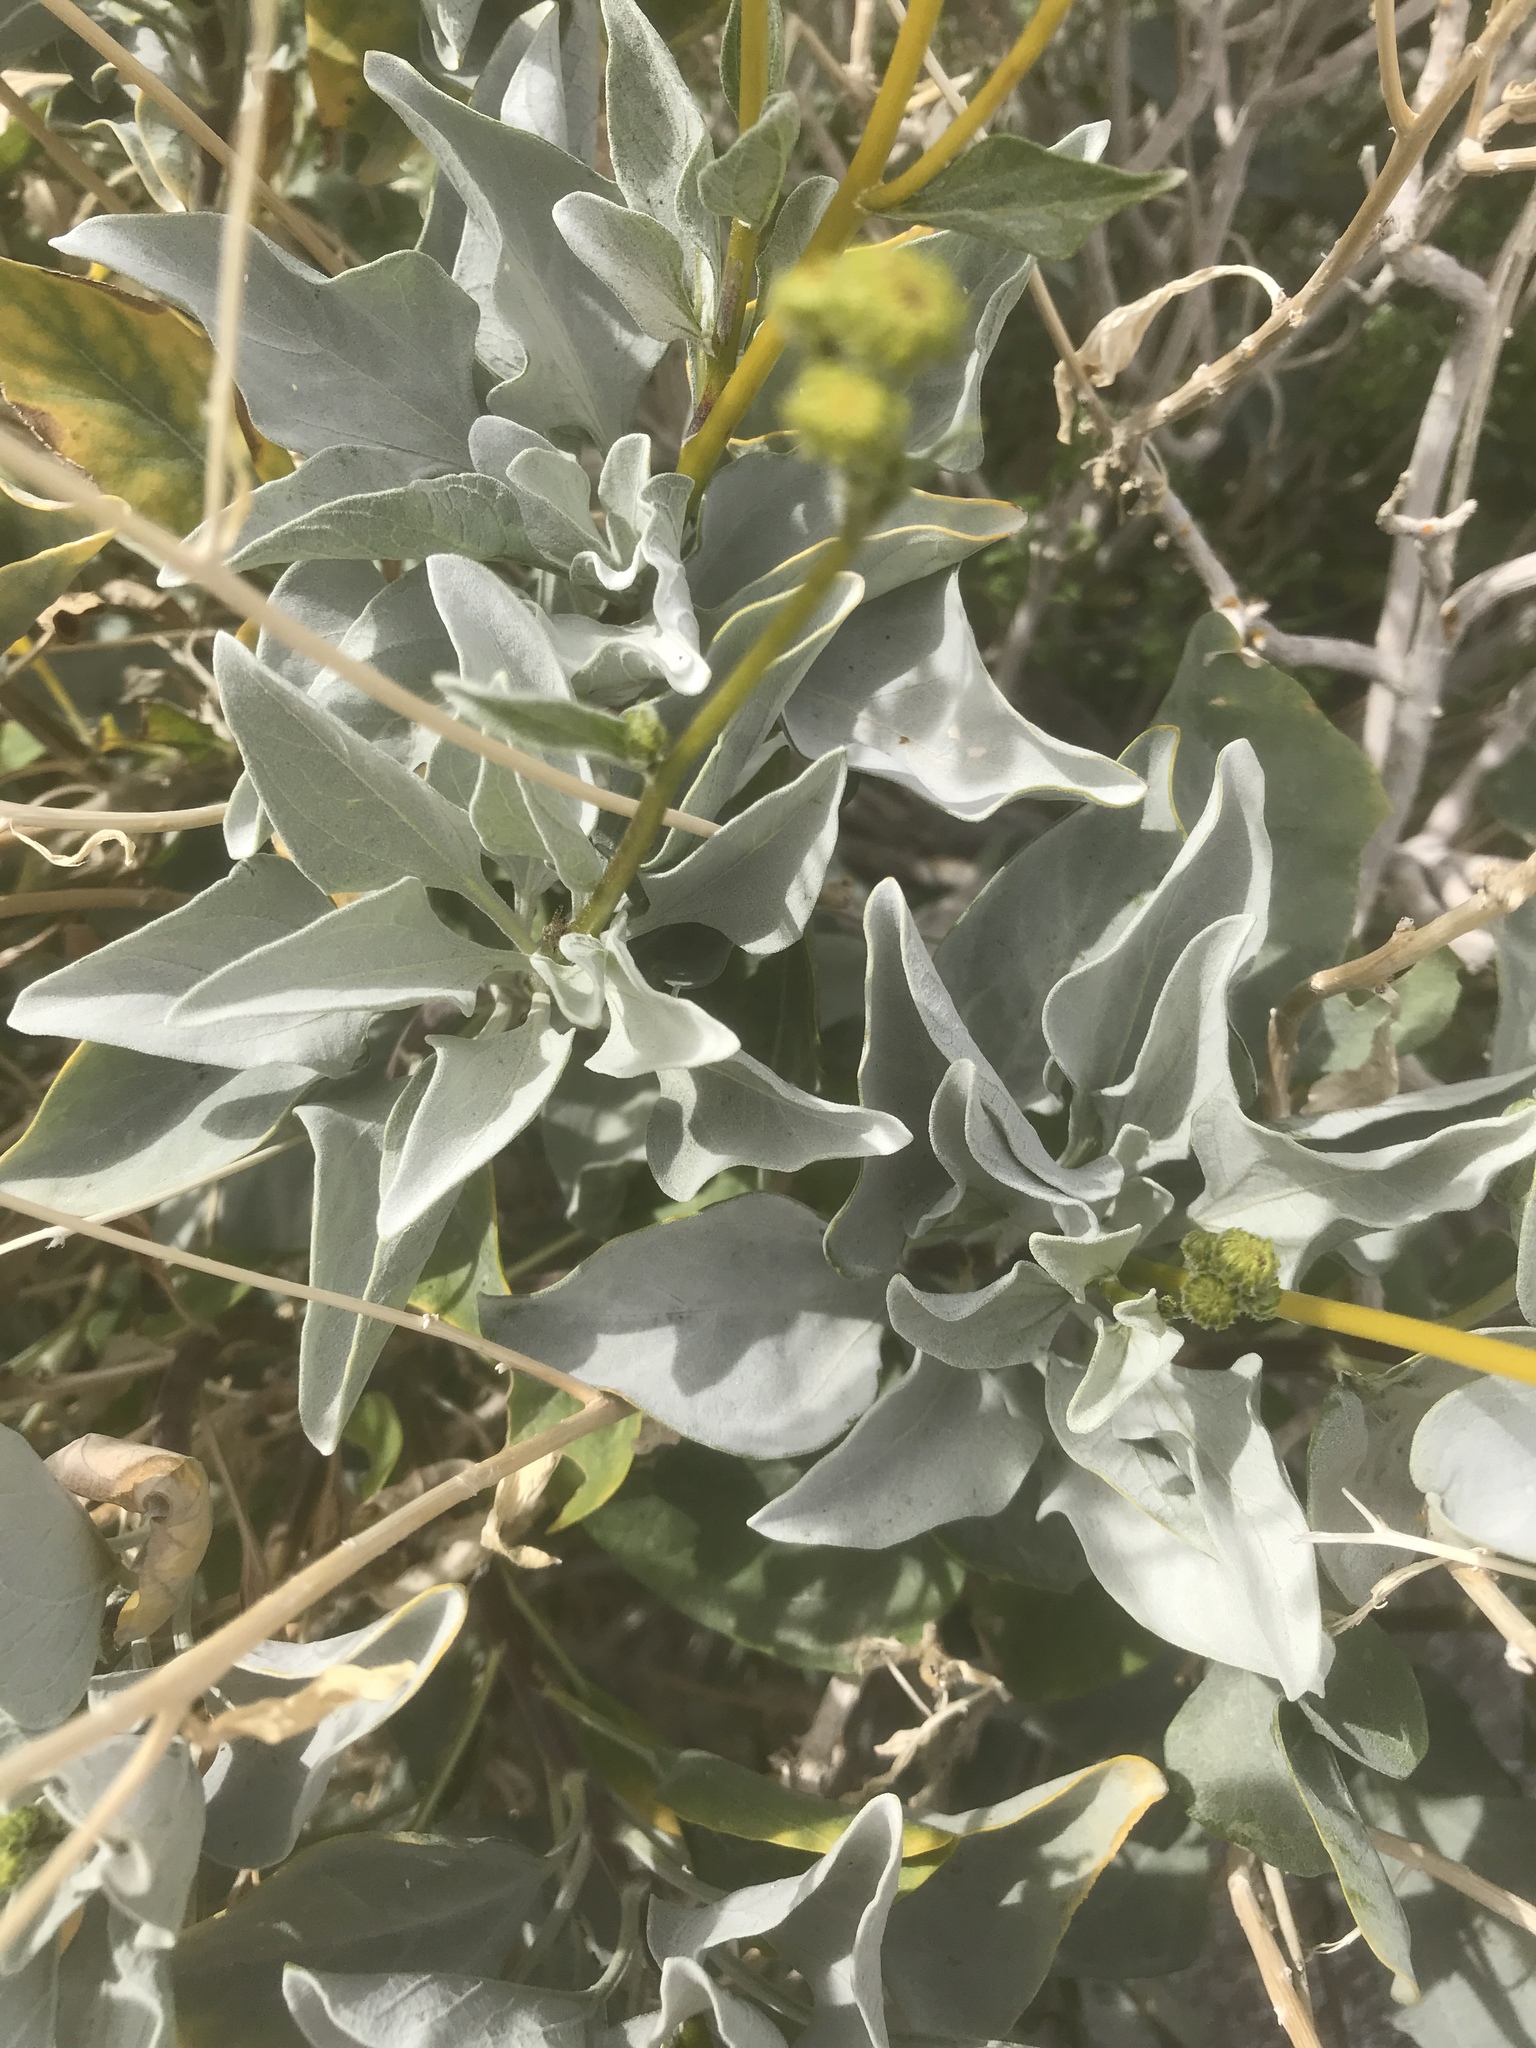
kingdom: Plantae
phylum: Tracheophyta
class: Magnoliopsida
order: Asterales
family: Asteraceae
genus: Encelia
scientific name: Encelia farinosa
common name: Brittlebush
